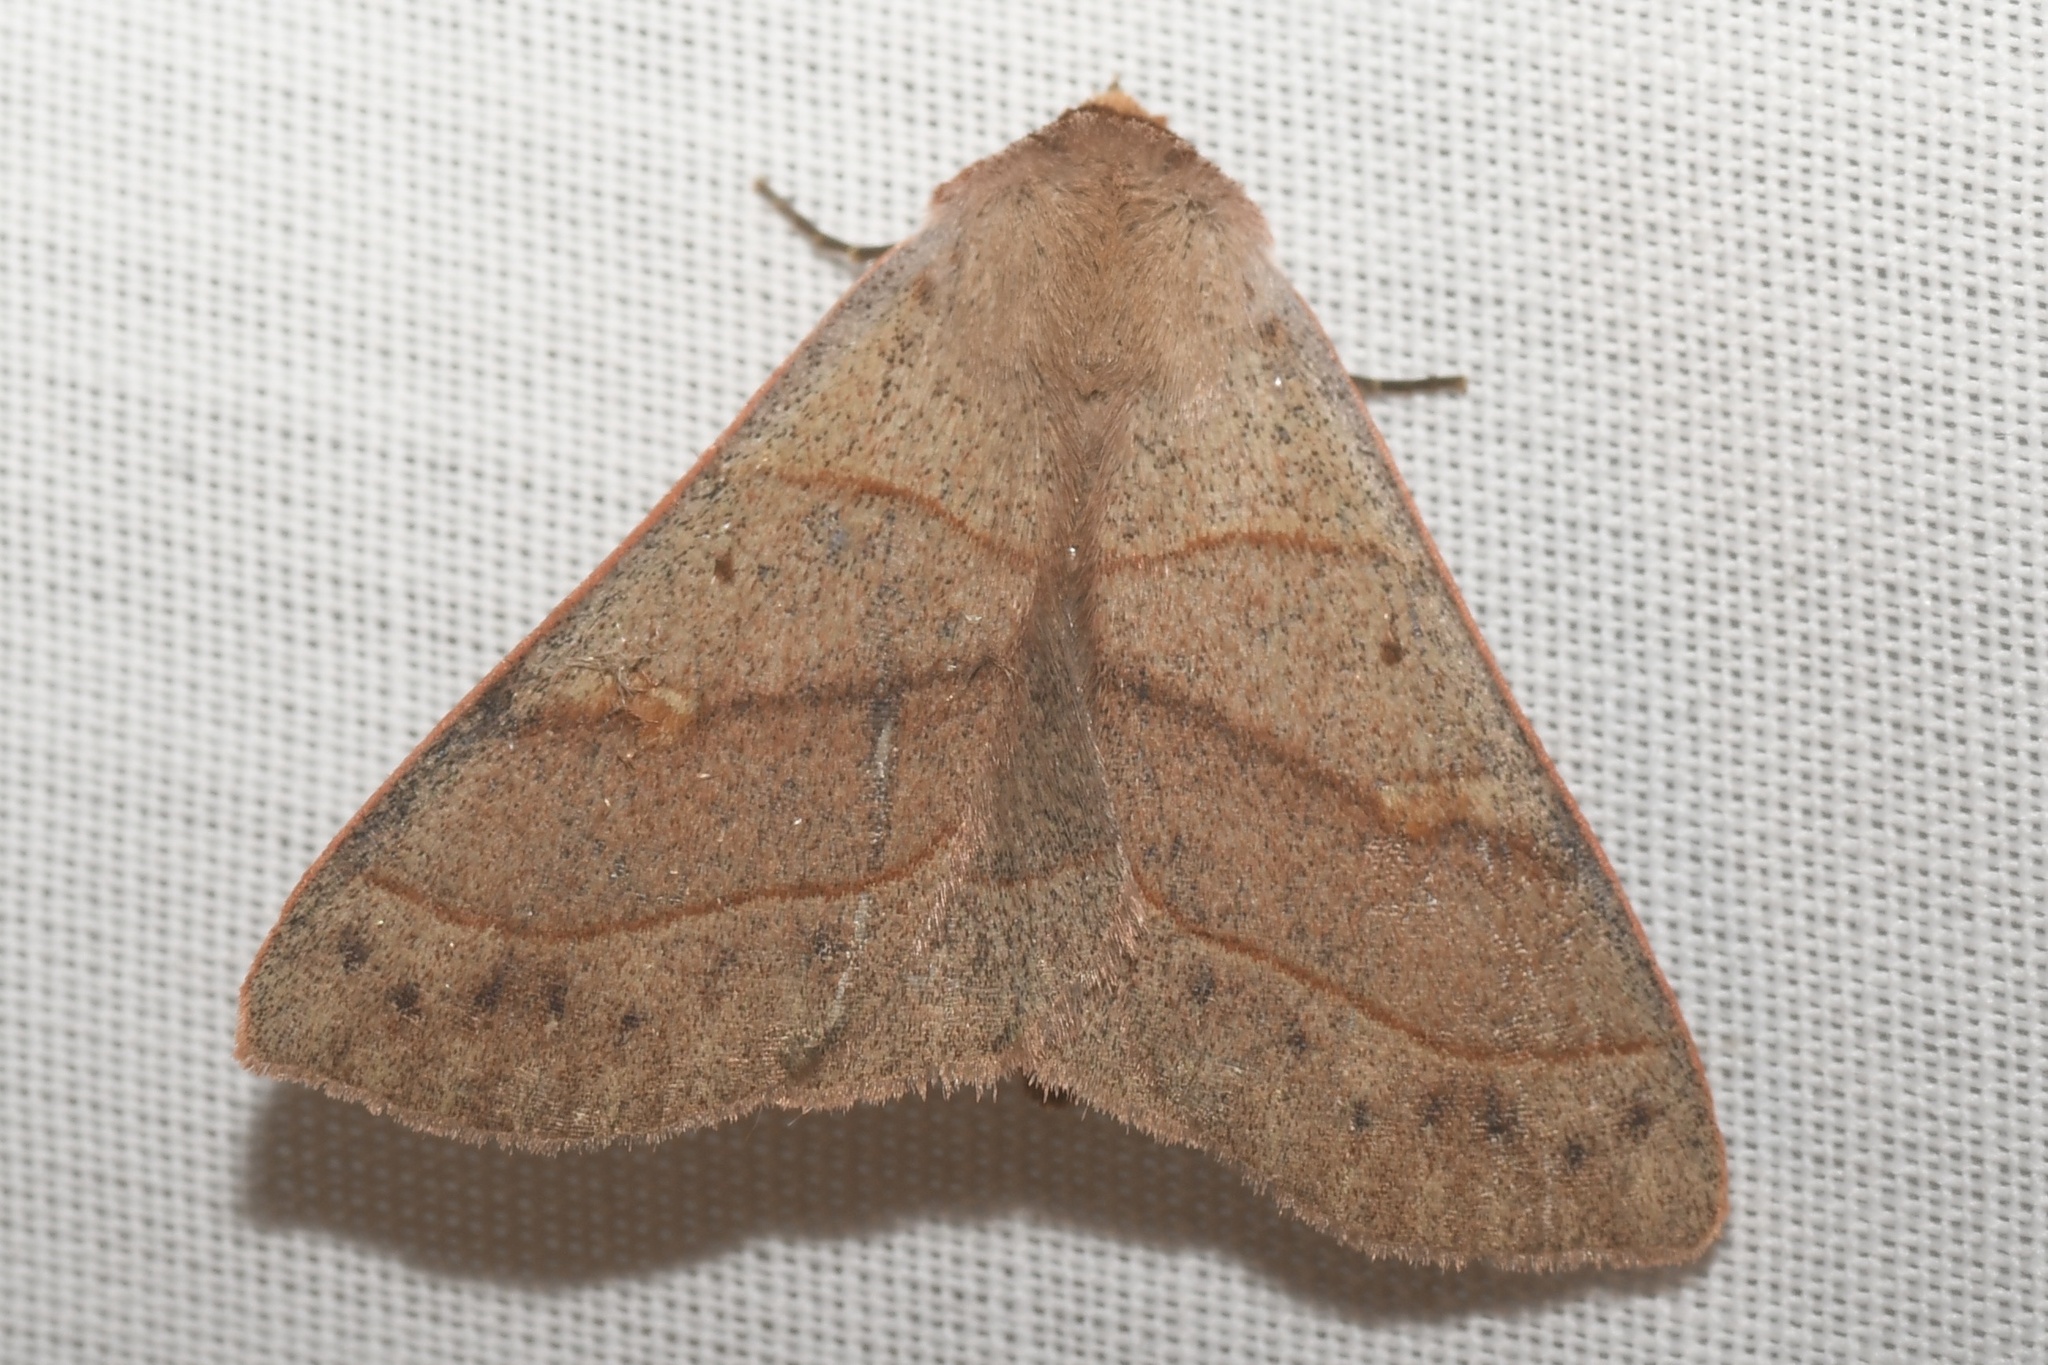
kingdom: Animalia
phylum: Arthropoda
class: Insecta
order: Lepidoptera
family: Erebidae
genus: Panopoda
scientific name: Panopoda rufimargo
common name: Red-lined panopoda moth
